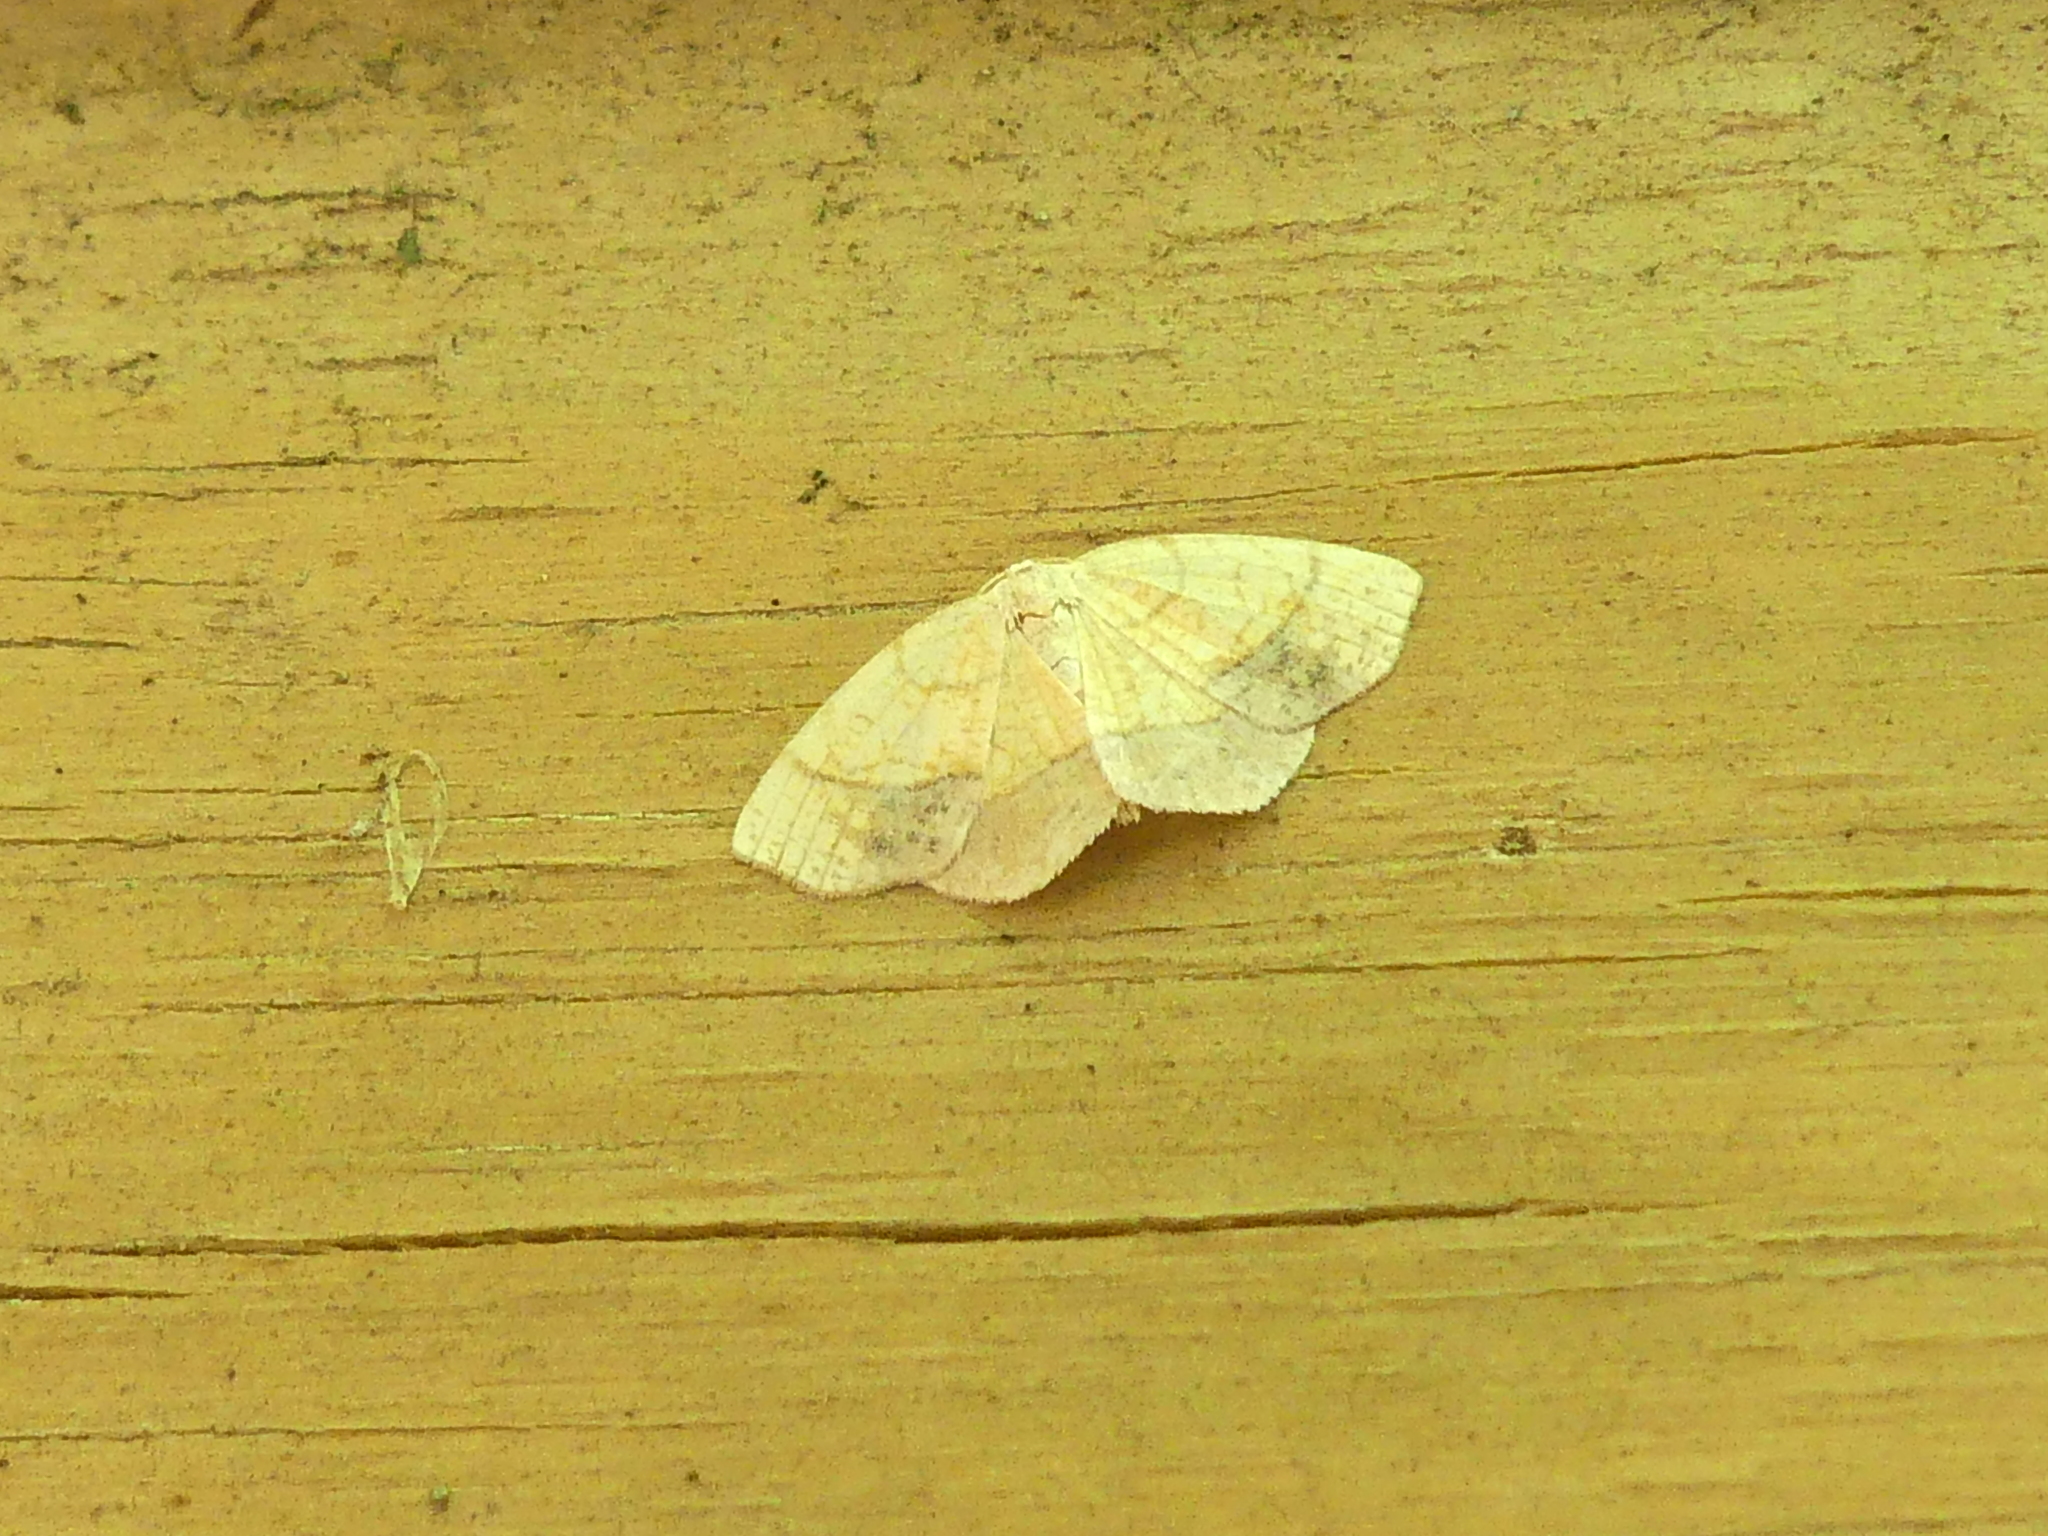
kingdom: Animalia
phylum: Arthropoda
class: Insecta
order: Lepidoptera
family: Geometridae
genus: Nematocampa
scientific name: Nematocampa resistaria
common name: Horned spanworm moth
